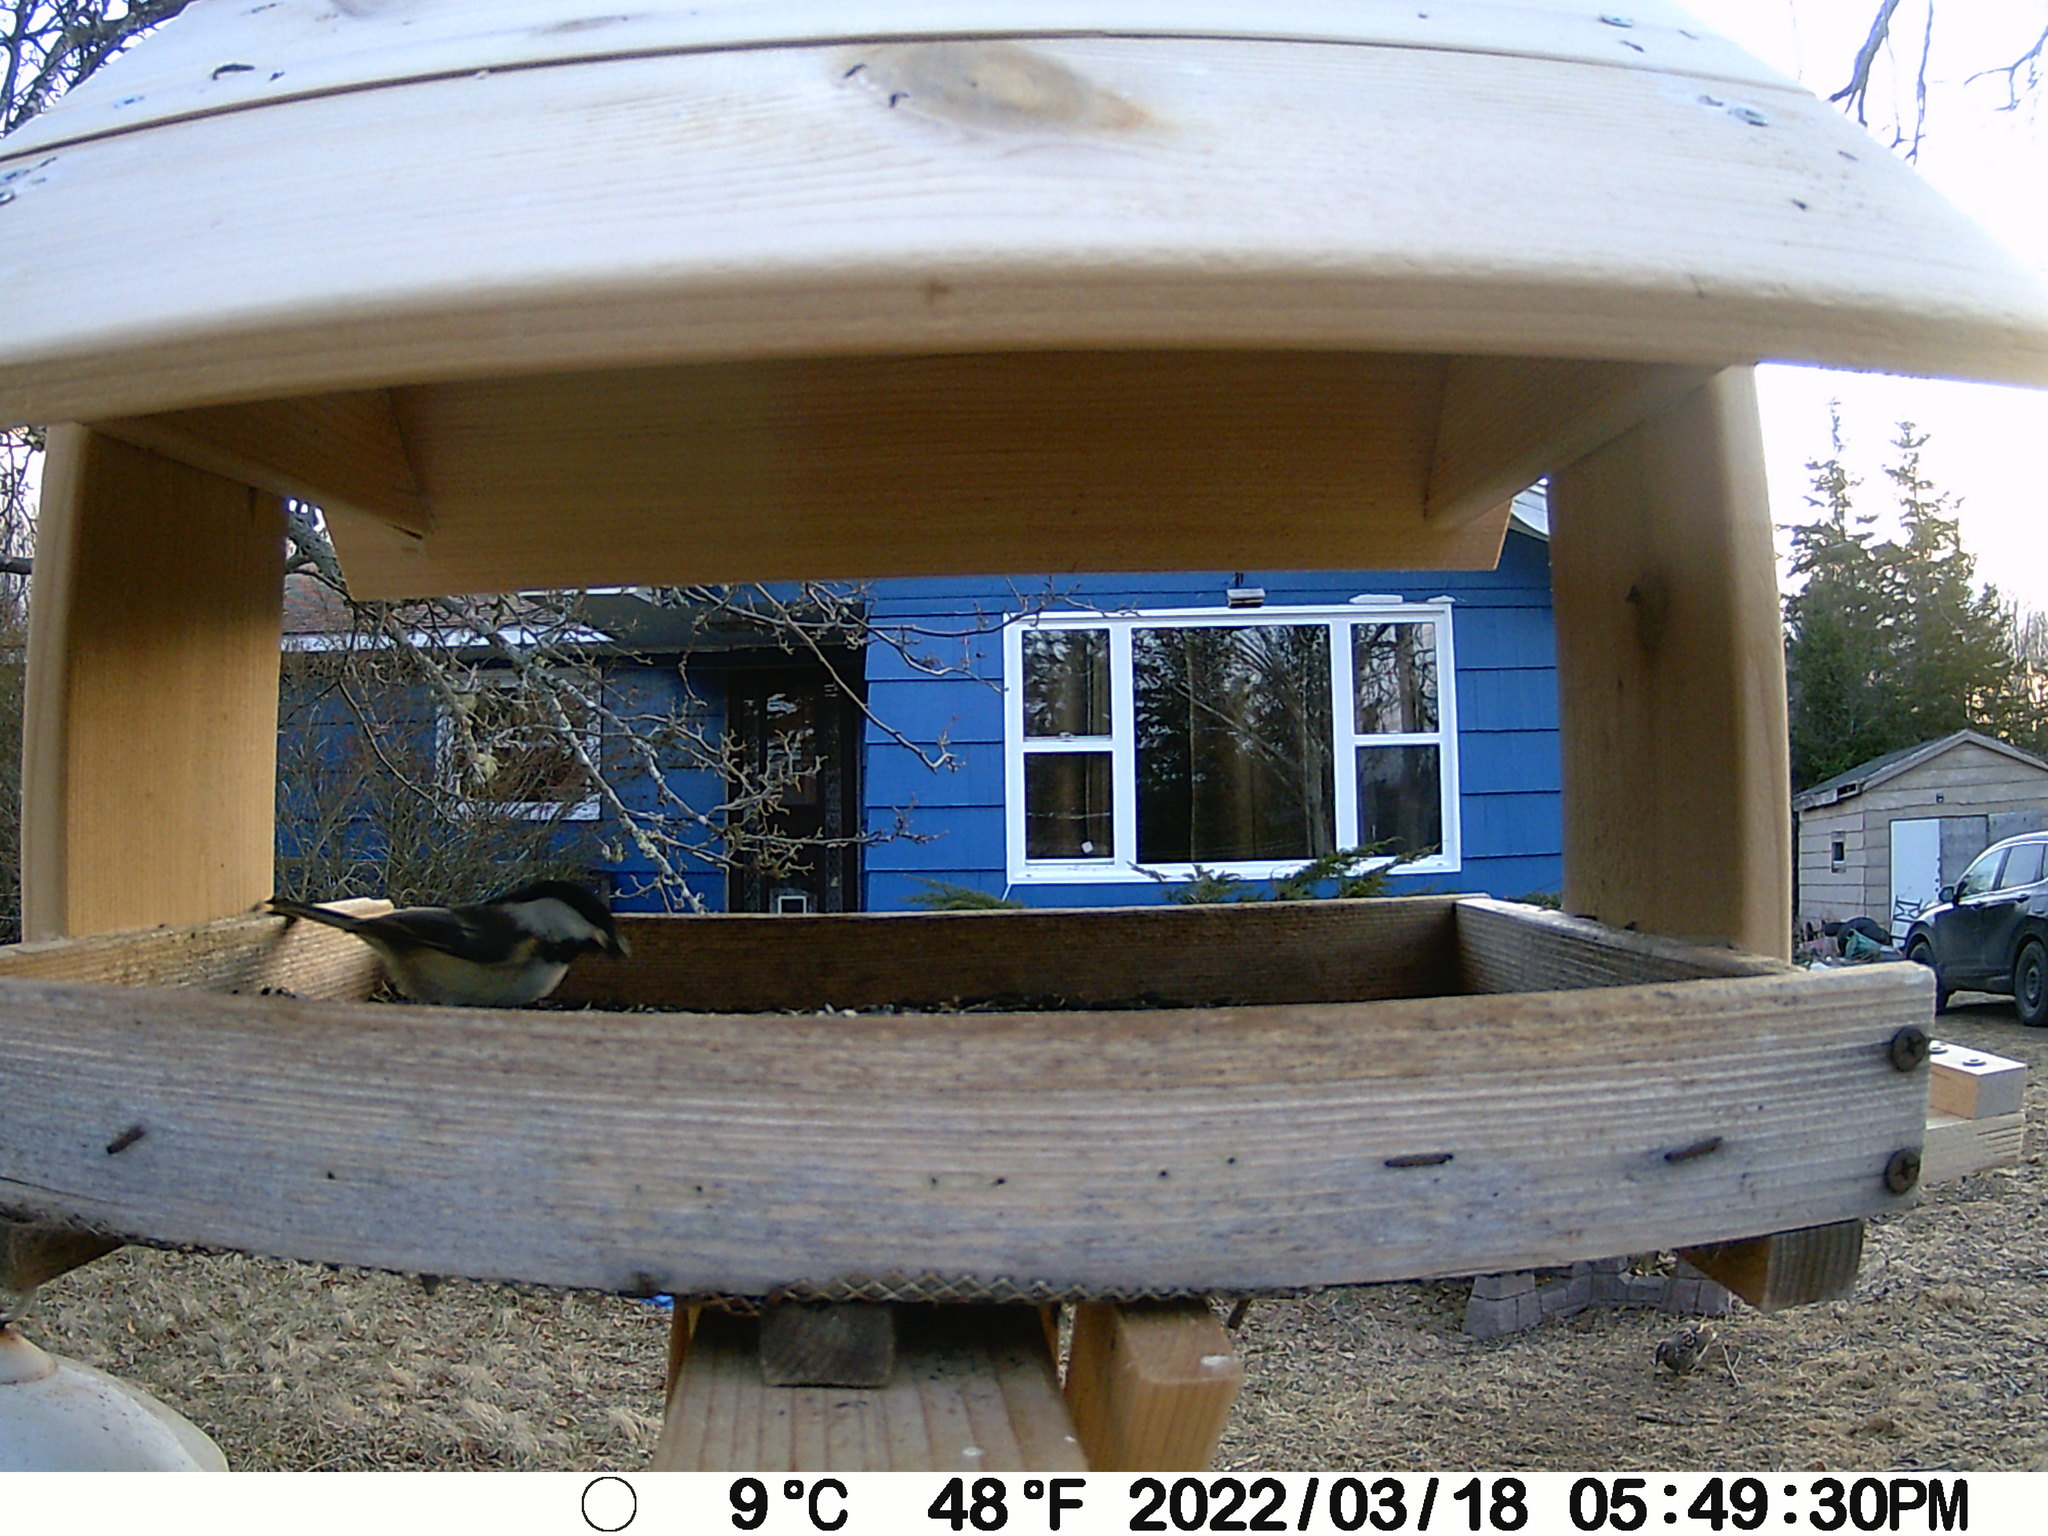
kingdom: Animalia
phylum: Chordata
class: Aves
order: Galliformes
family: Phasianidae
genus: Bonasa
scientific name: Bonasa umbellus
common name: Ruffed grouse
